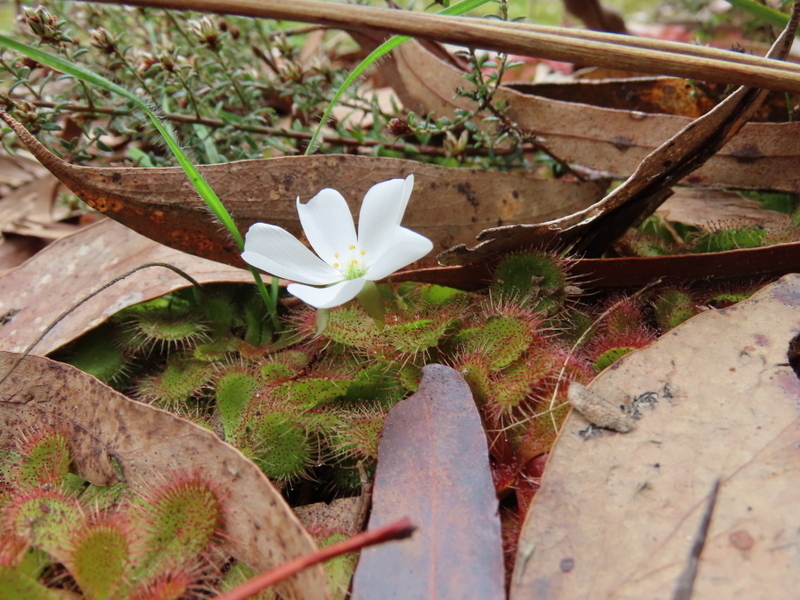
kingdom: Plantae
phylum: Tracheophyta
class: Magnoliopsida
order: Caryophyllales
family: Droseraceae
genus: Drosera
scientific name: Drosera aberrans
